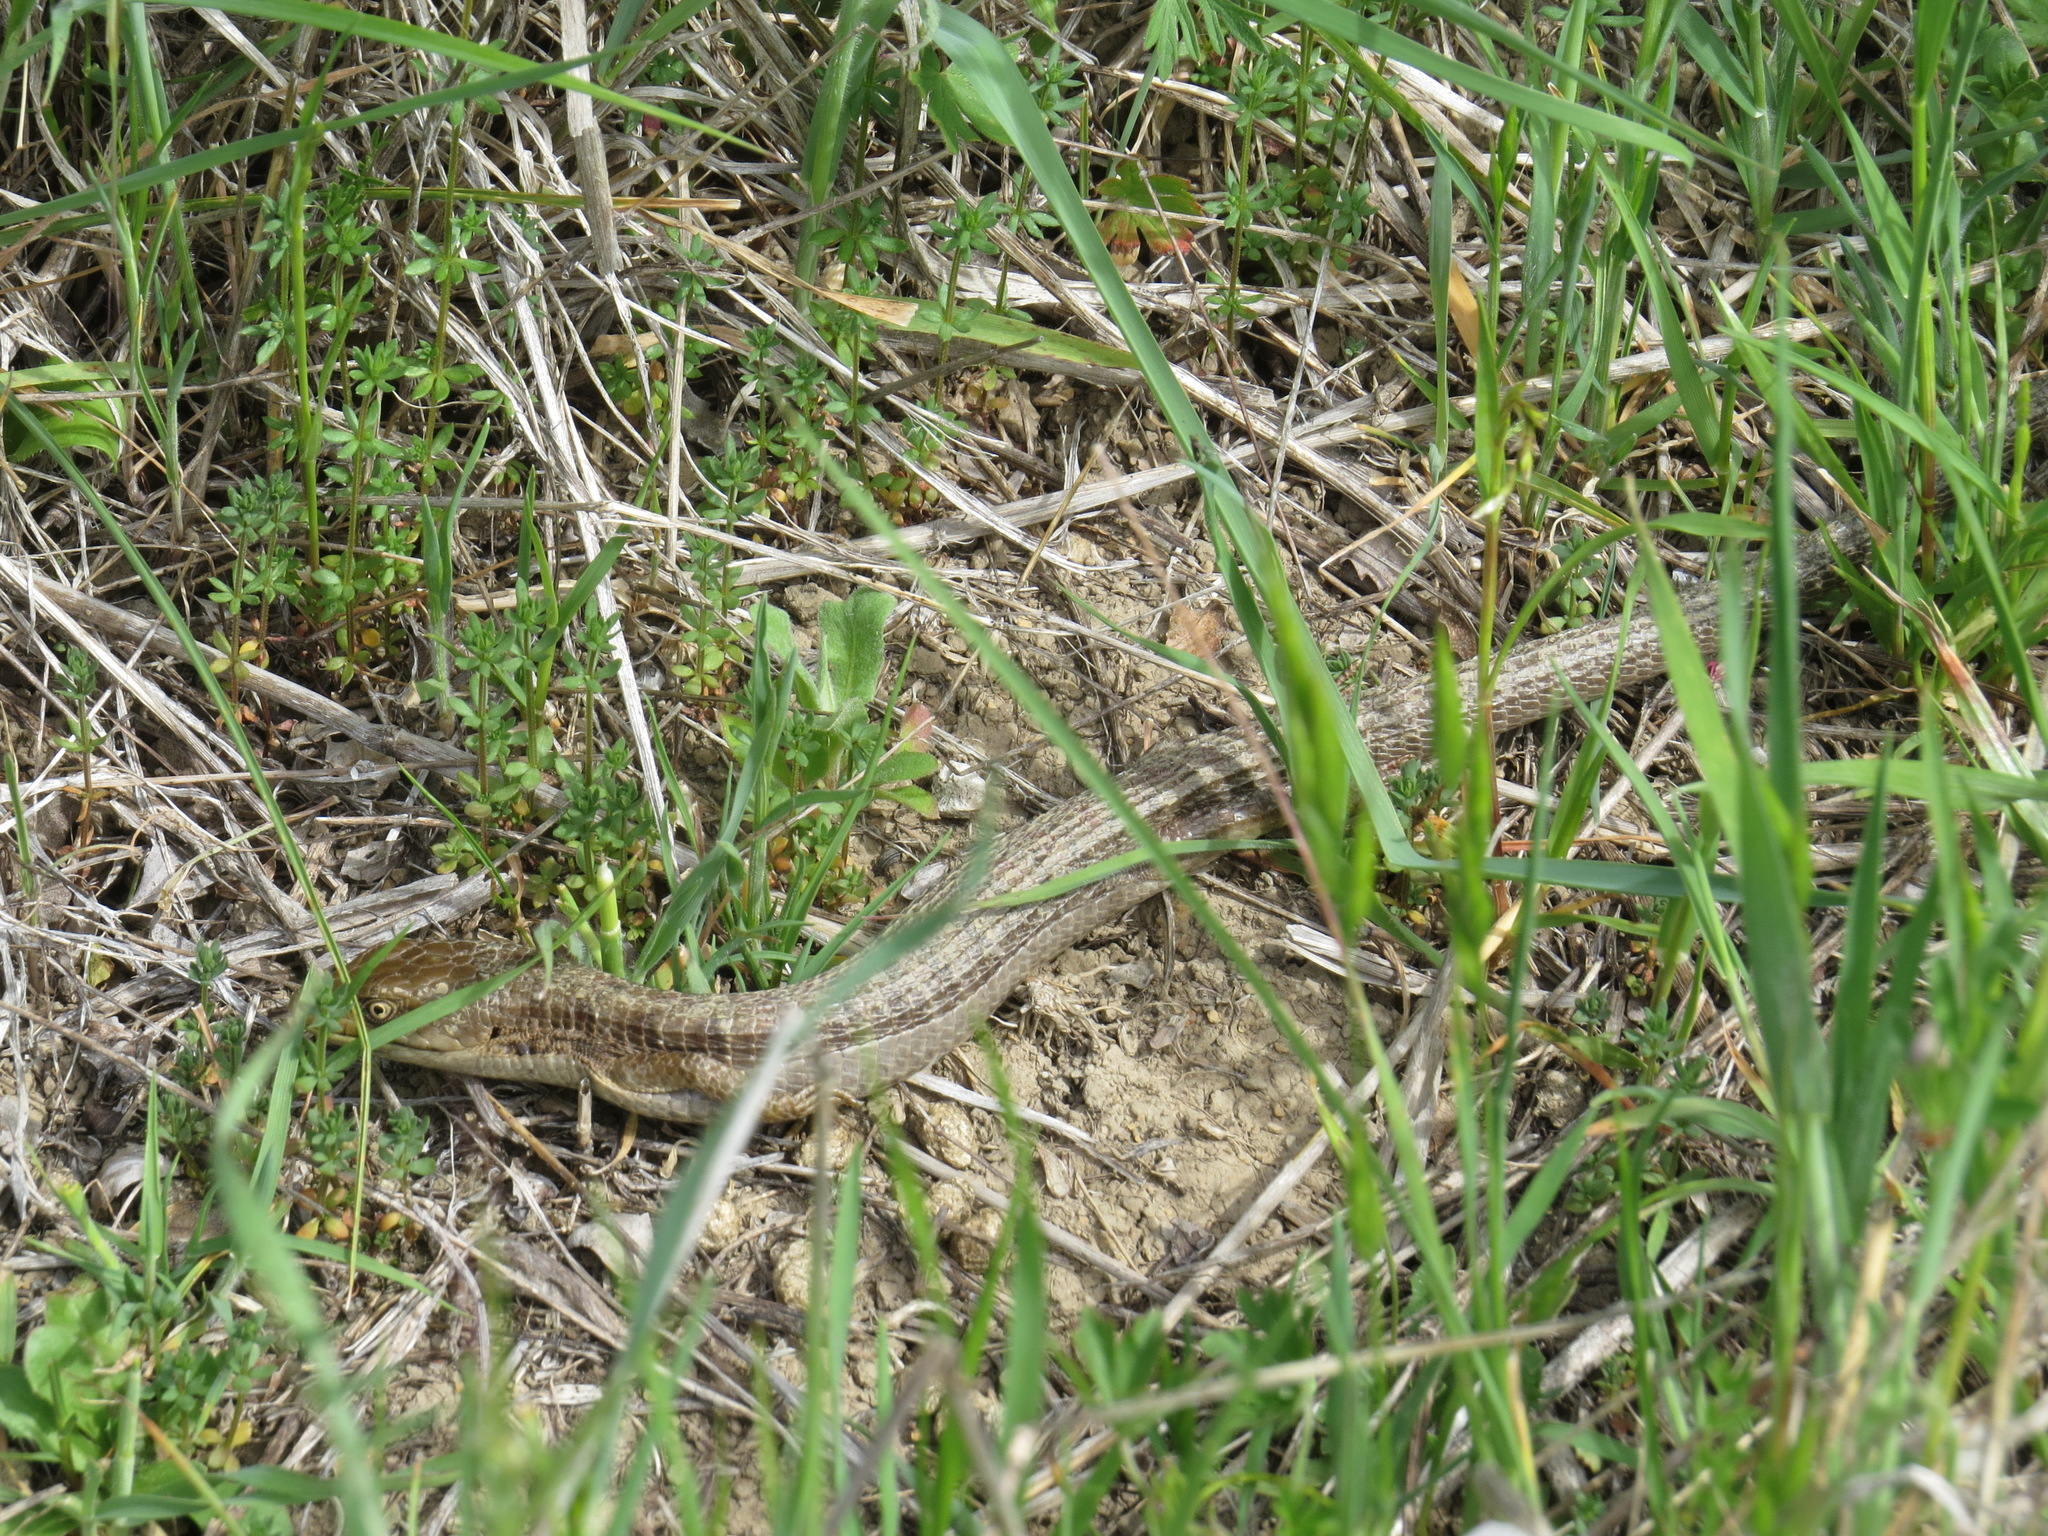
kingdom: Animalia
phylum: Chordata
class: Squamata
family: Anguidae
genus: Elgaria
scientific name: Elgaria multicarinata
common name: Southern alligator lizard
